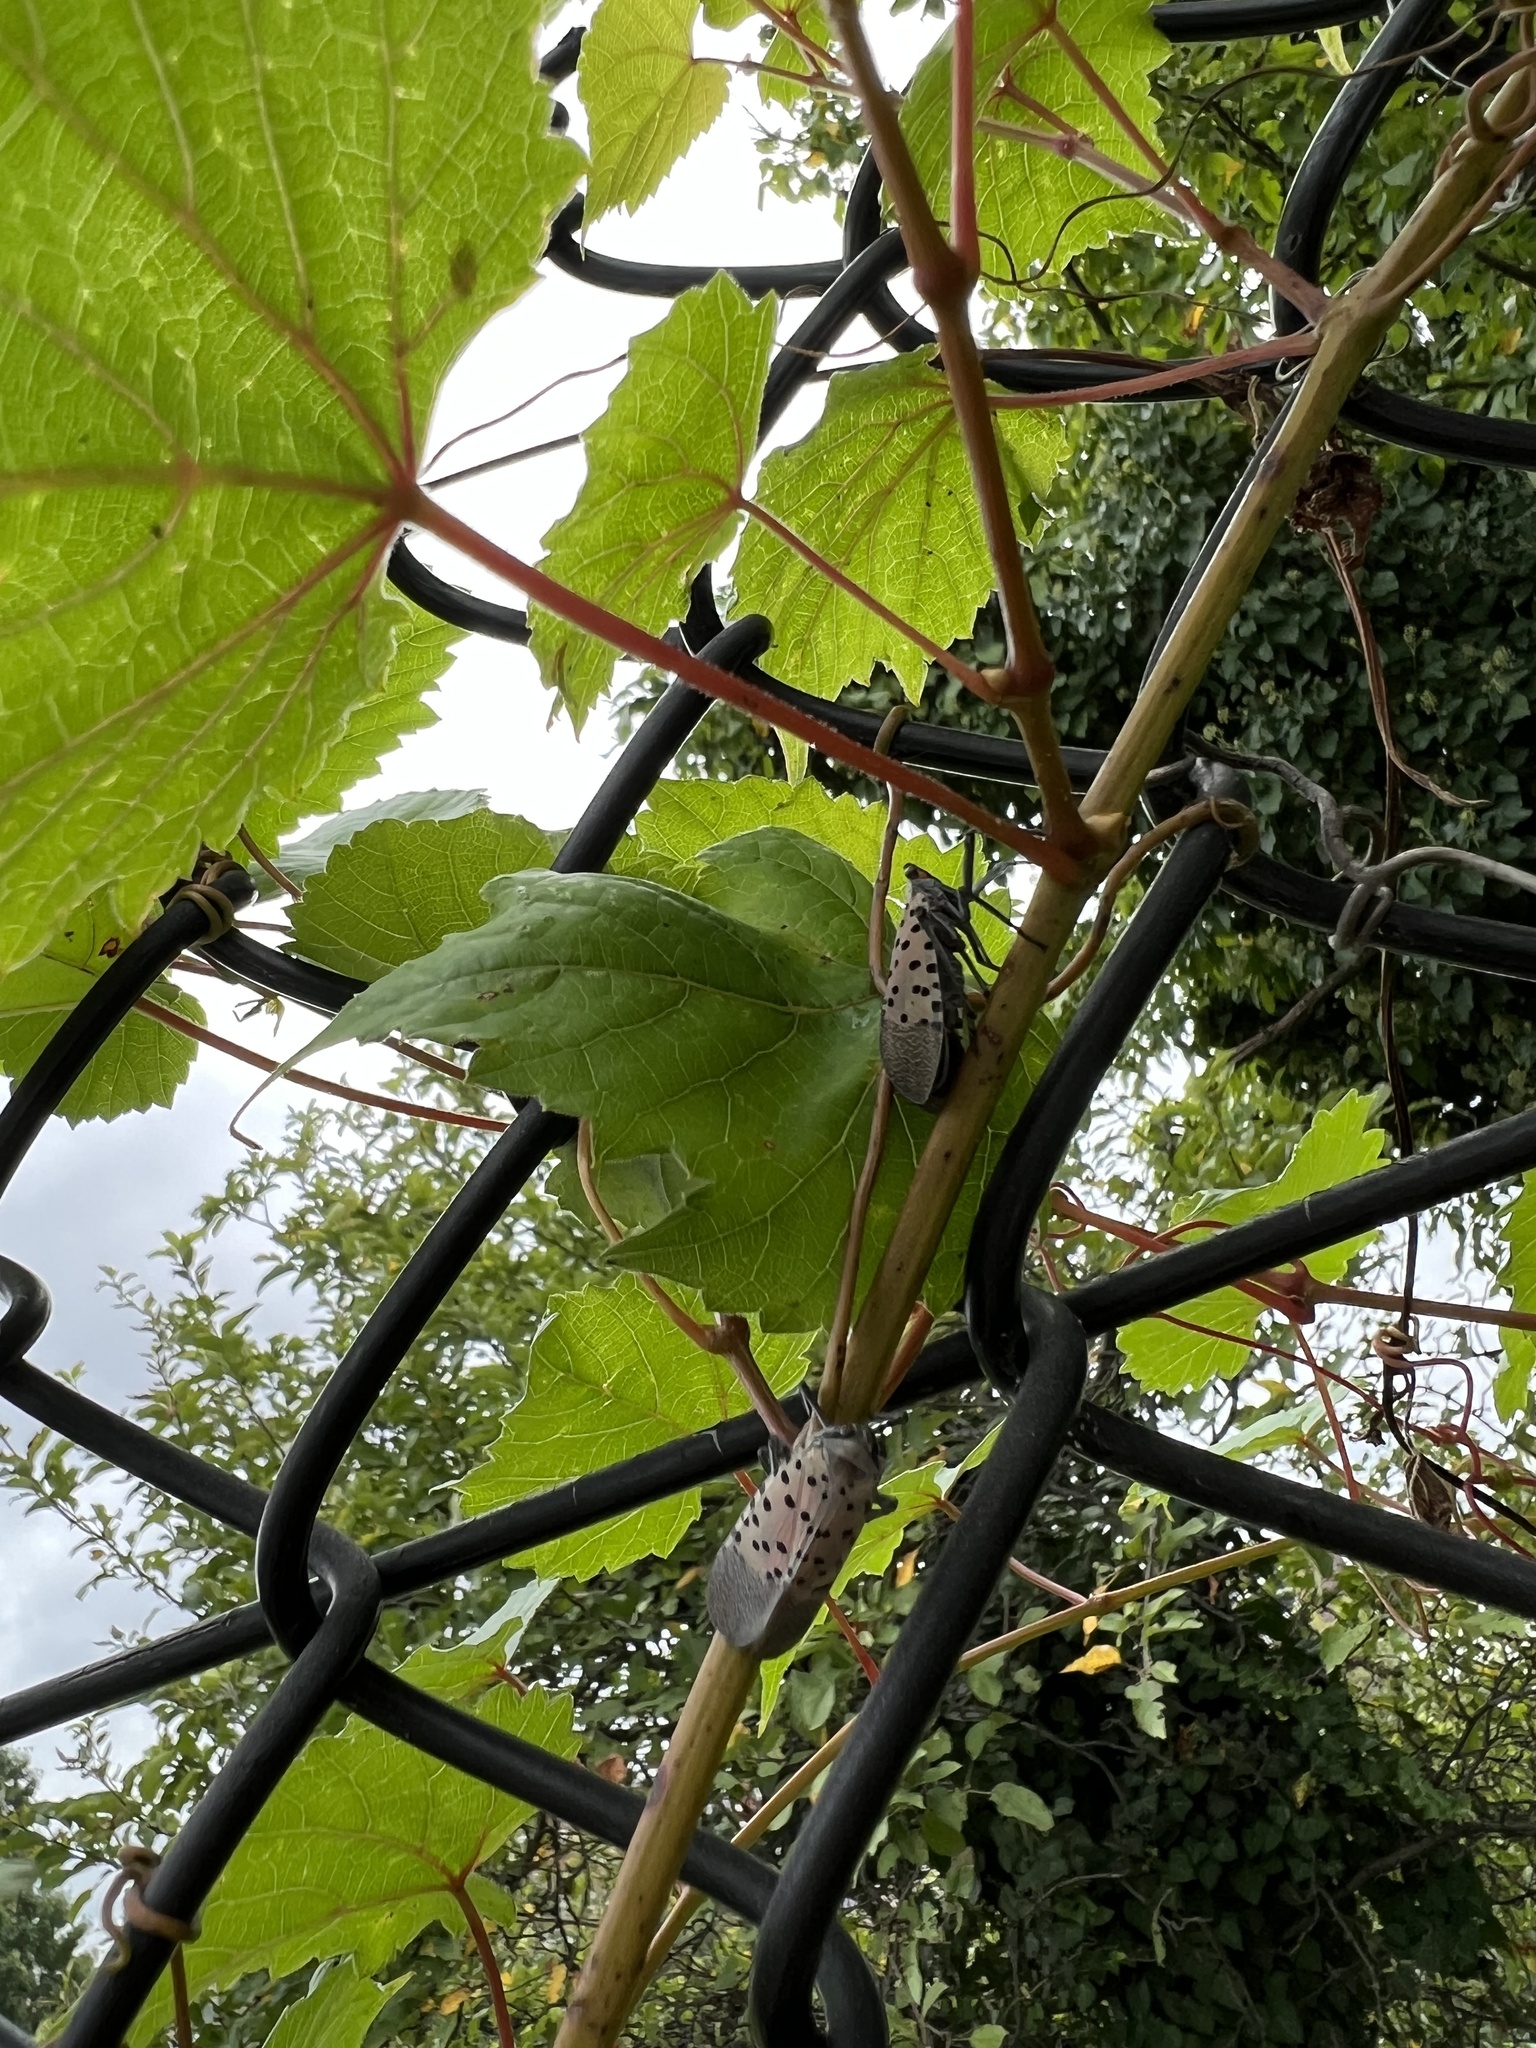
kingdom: Animalia
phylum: Arthropoda
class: Insecta
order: Hemiptera
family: Fulgoridae
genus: Lycorma
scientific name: Lycorma delicatula
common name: Spotted lanternfly
